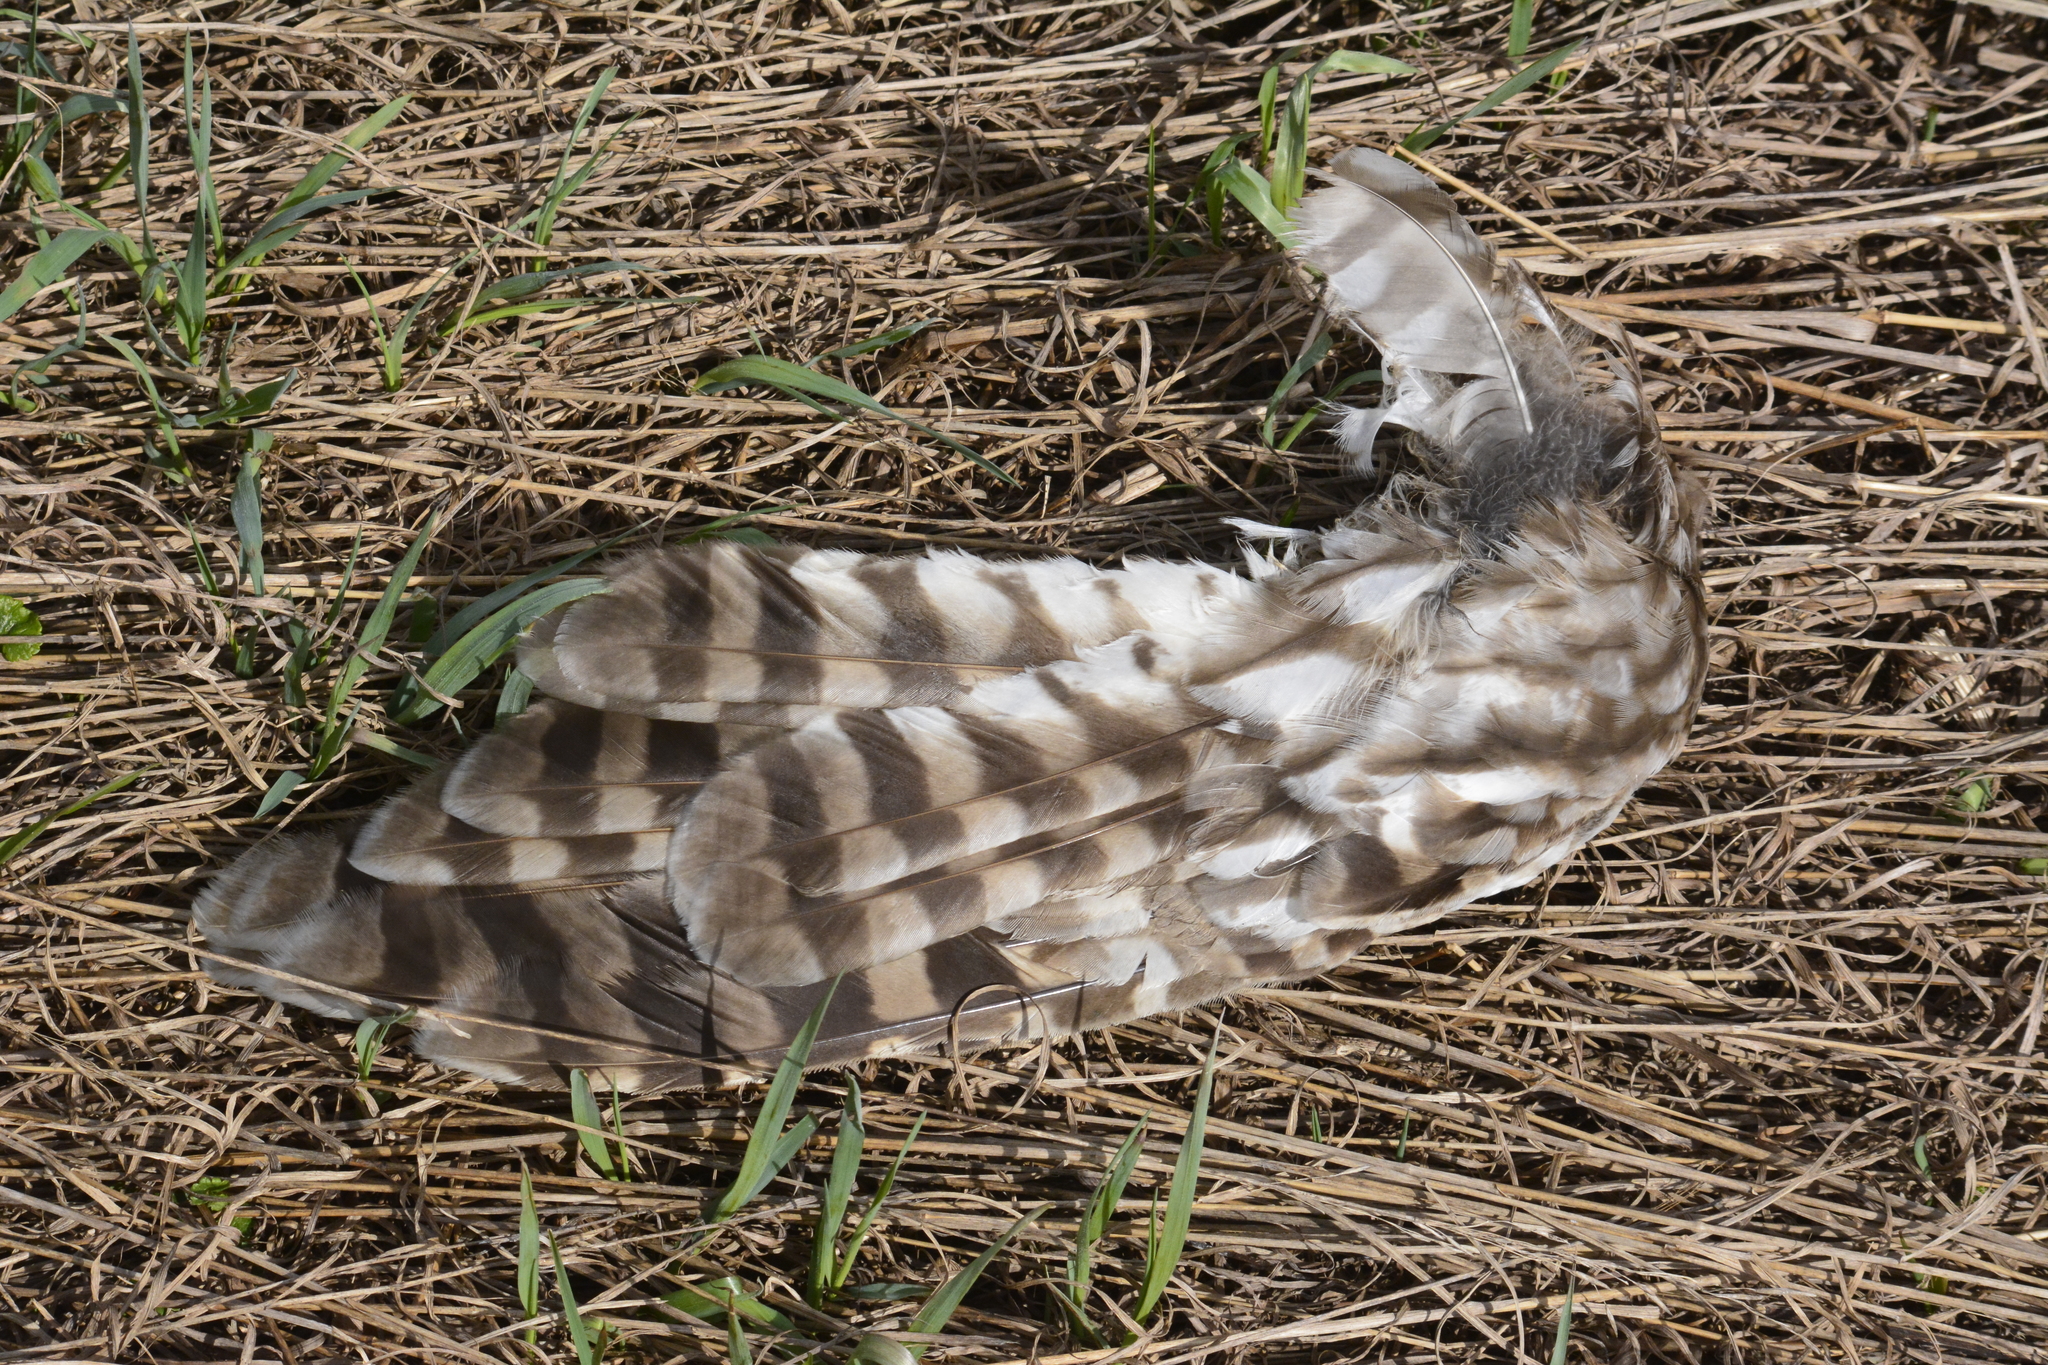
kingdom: Animalia
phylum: Chordata
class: Aves
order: Strigiformes
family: Strigidae
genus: Strix
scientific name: Strix uralensis
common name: Ural owl
